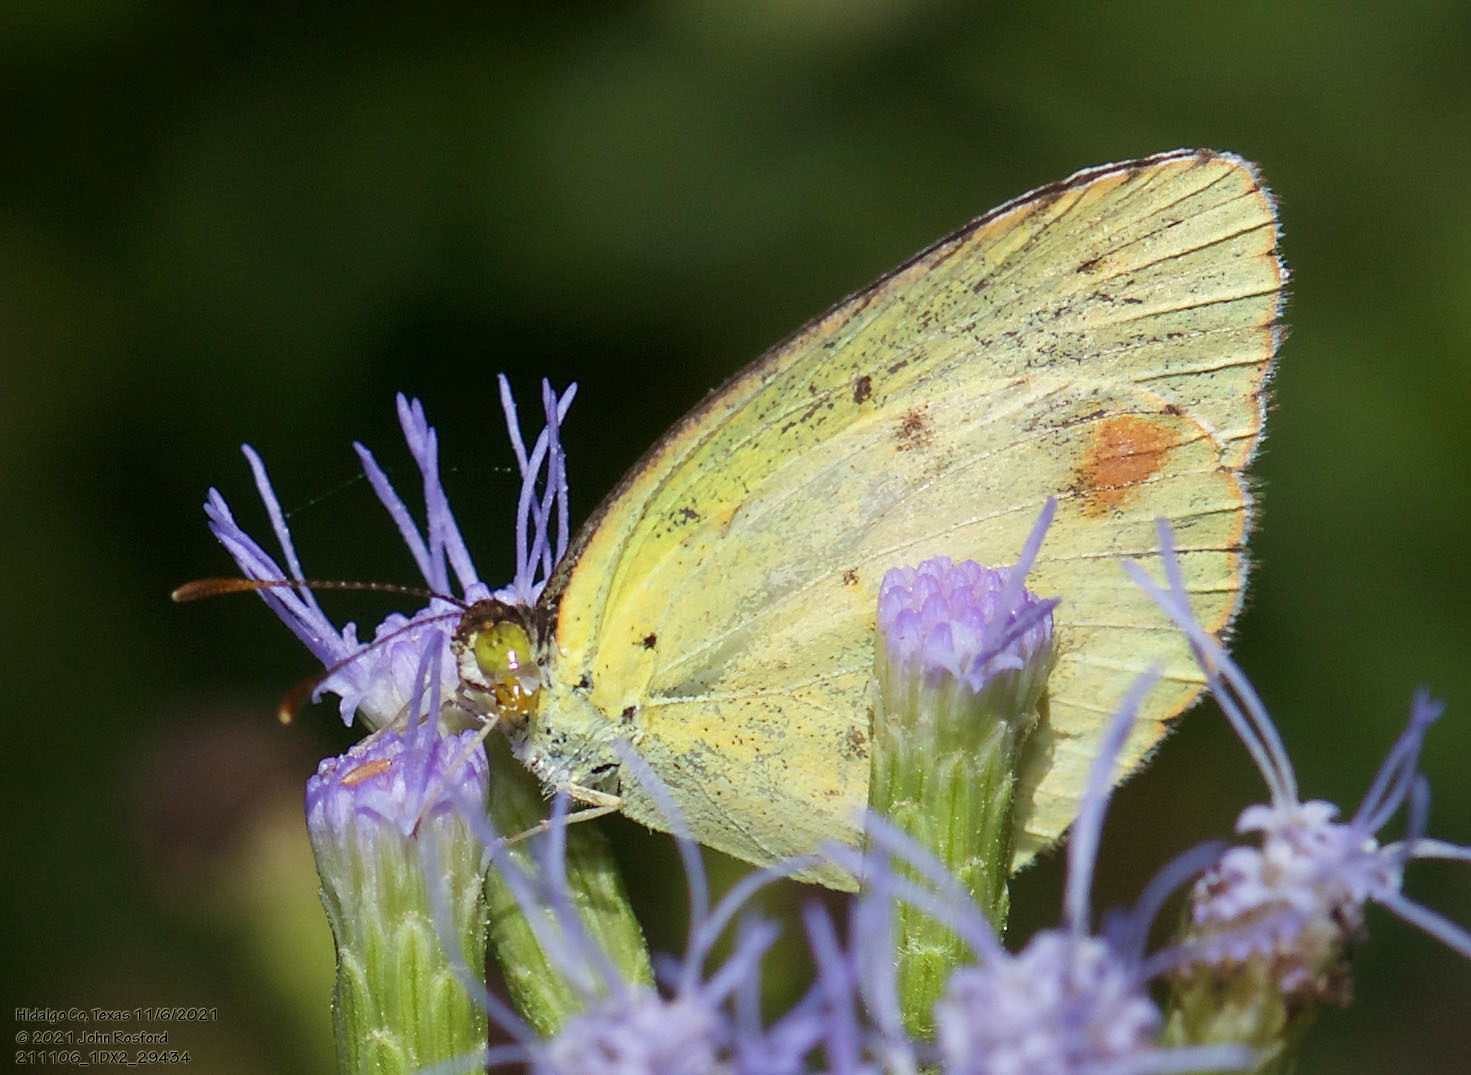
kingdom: Animalia
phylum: Arthropoda
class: Insecta
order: Lepidoptera
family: Pieridae
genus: Pyrisitia
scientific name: Pyrisitia lisa
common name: Little yellow
